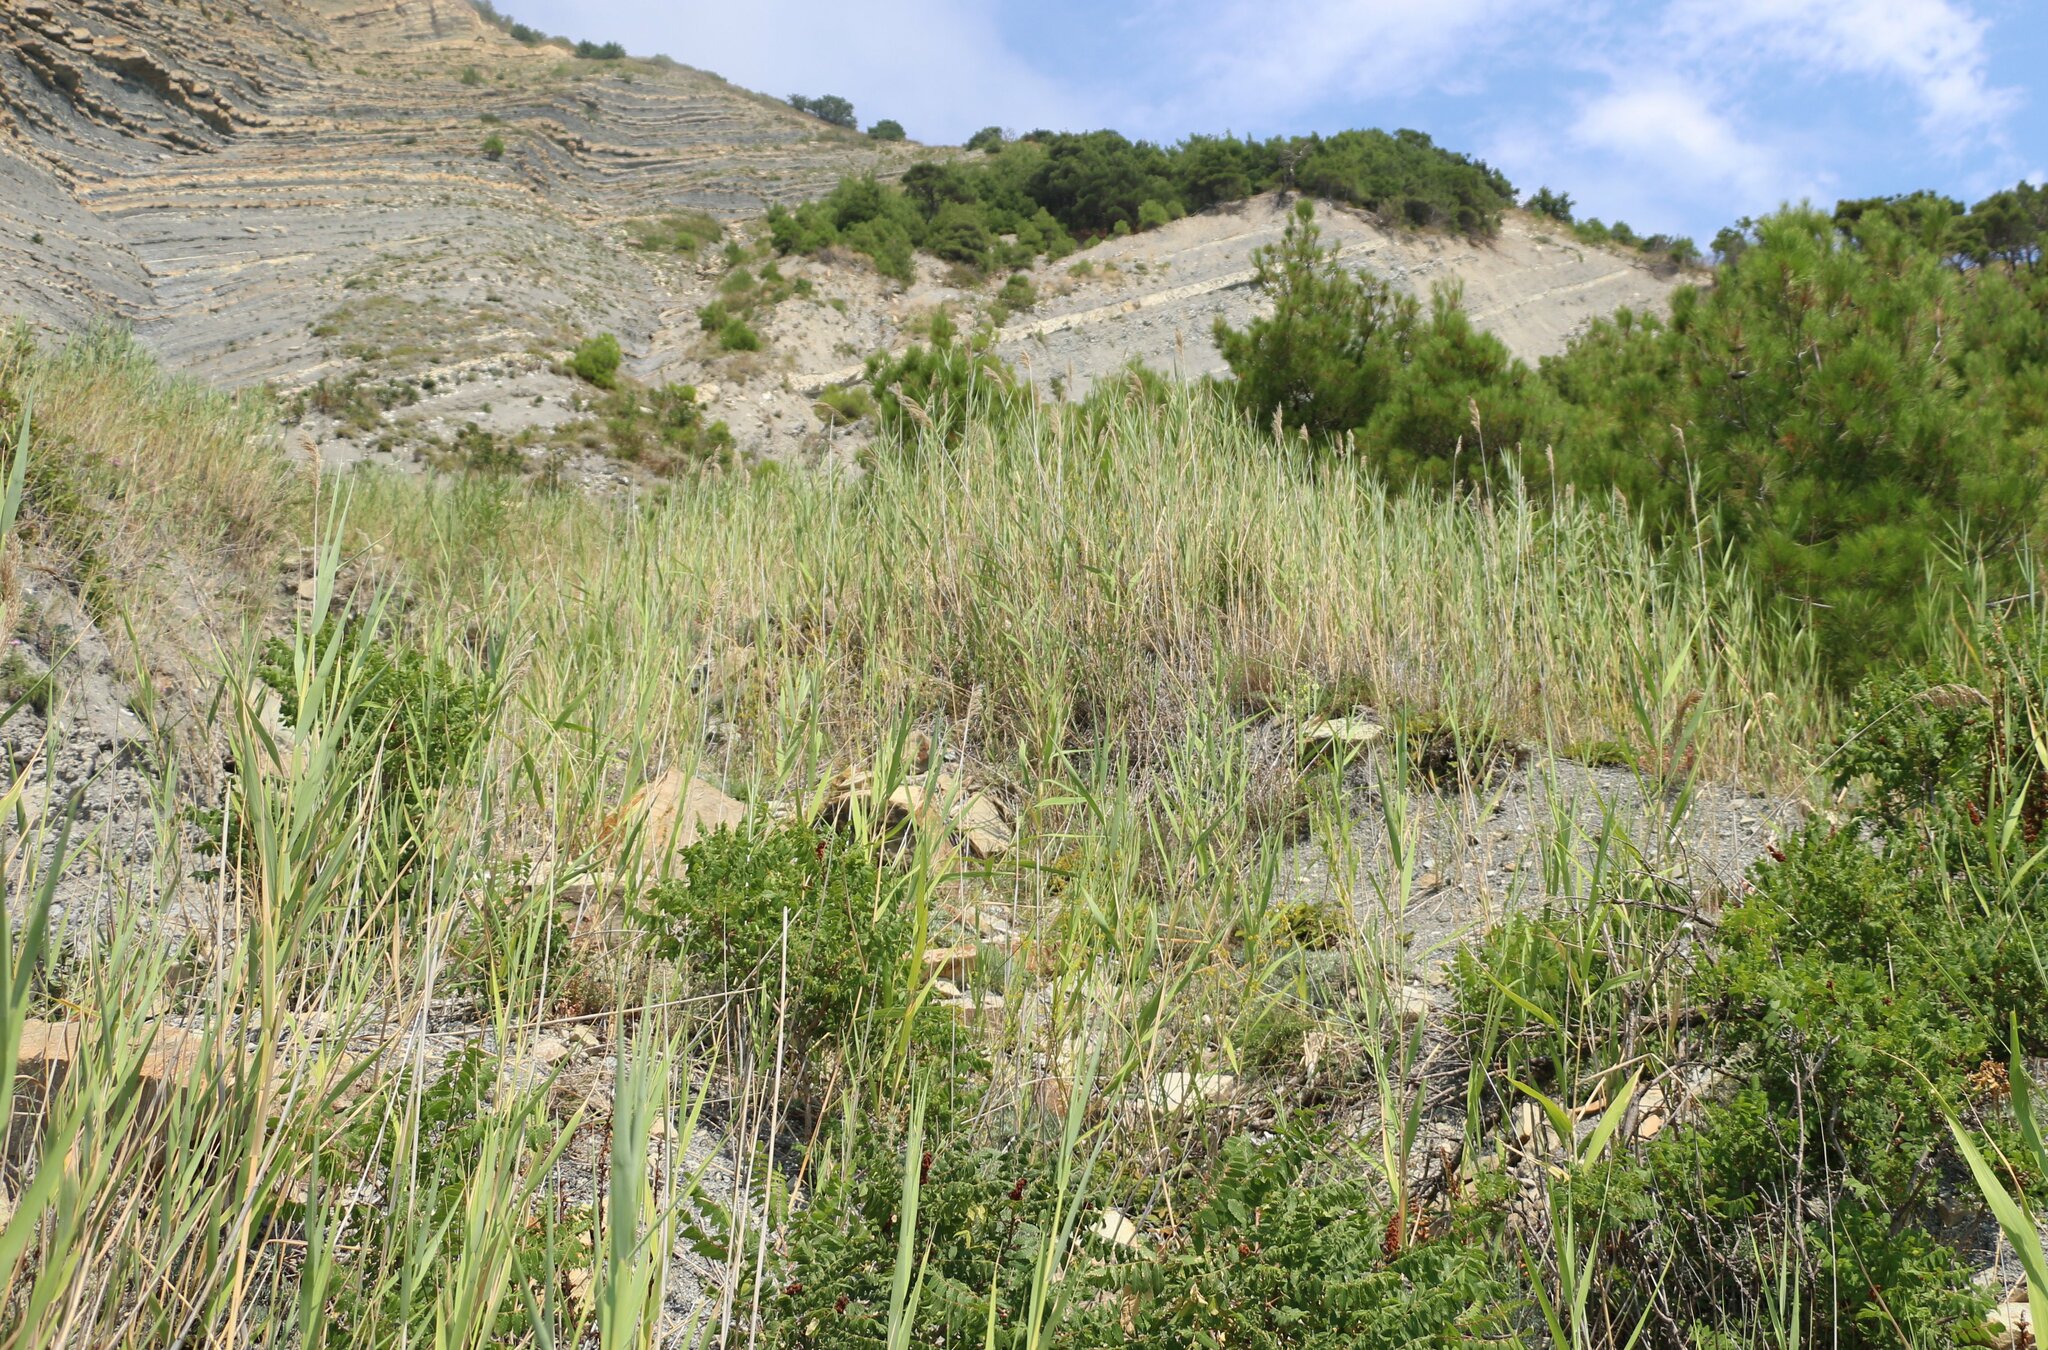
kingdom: Plantae
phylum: Tracheophyta
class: Liliopsida
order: Poales
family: Poaceae
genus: Phragmites
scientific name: Phragmites australis
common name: Common reed
